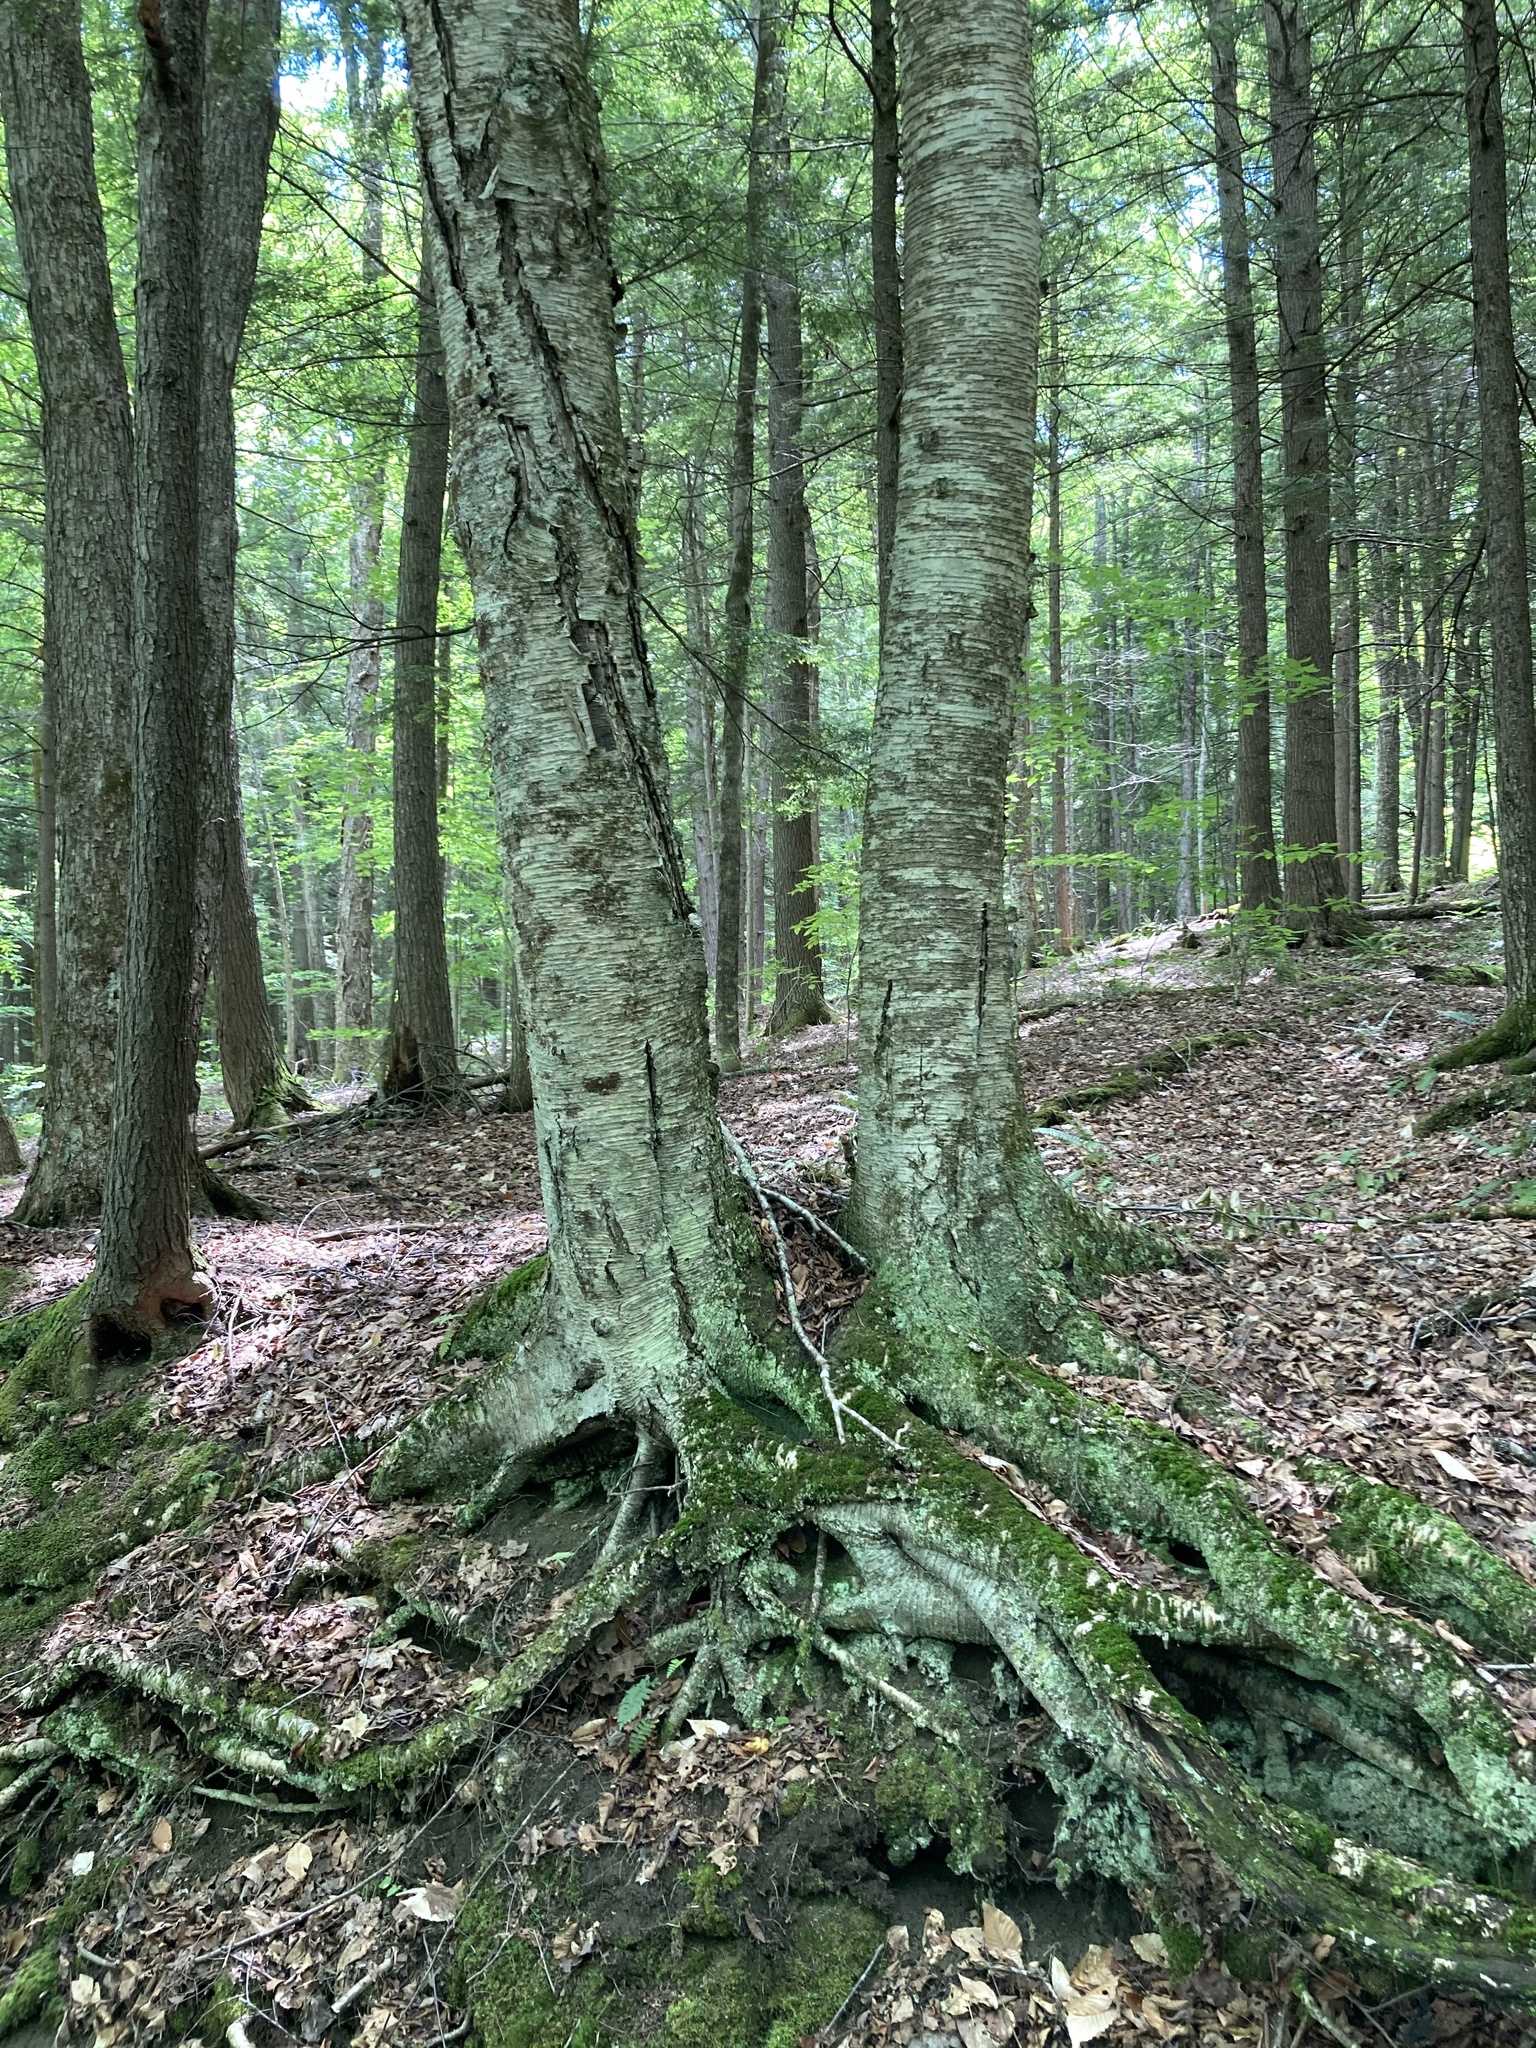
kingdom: Plantae
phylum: Tracheophyta
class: Magnoliopsida
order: Fagales
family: Betulaceae
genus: Betula
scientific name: Betula alleghaniensis
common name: Yellow birch
